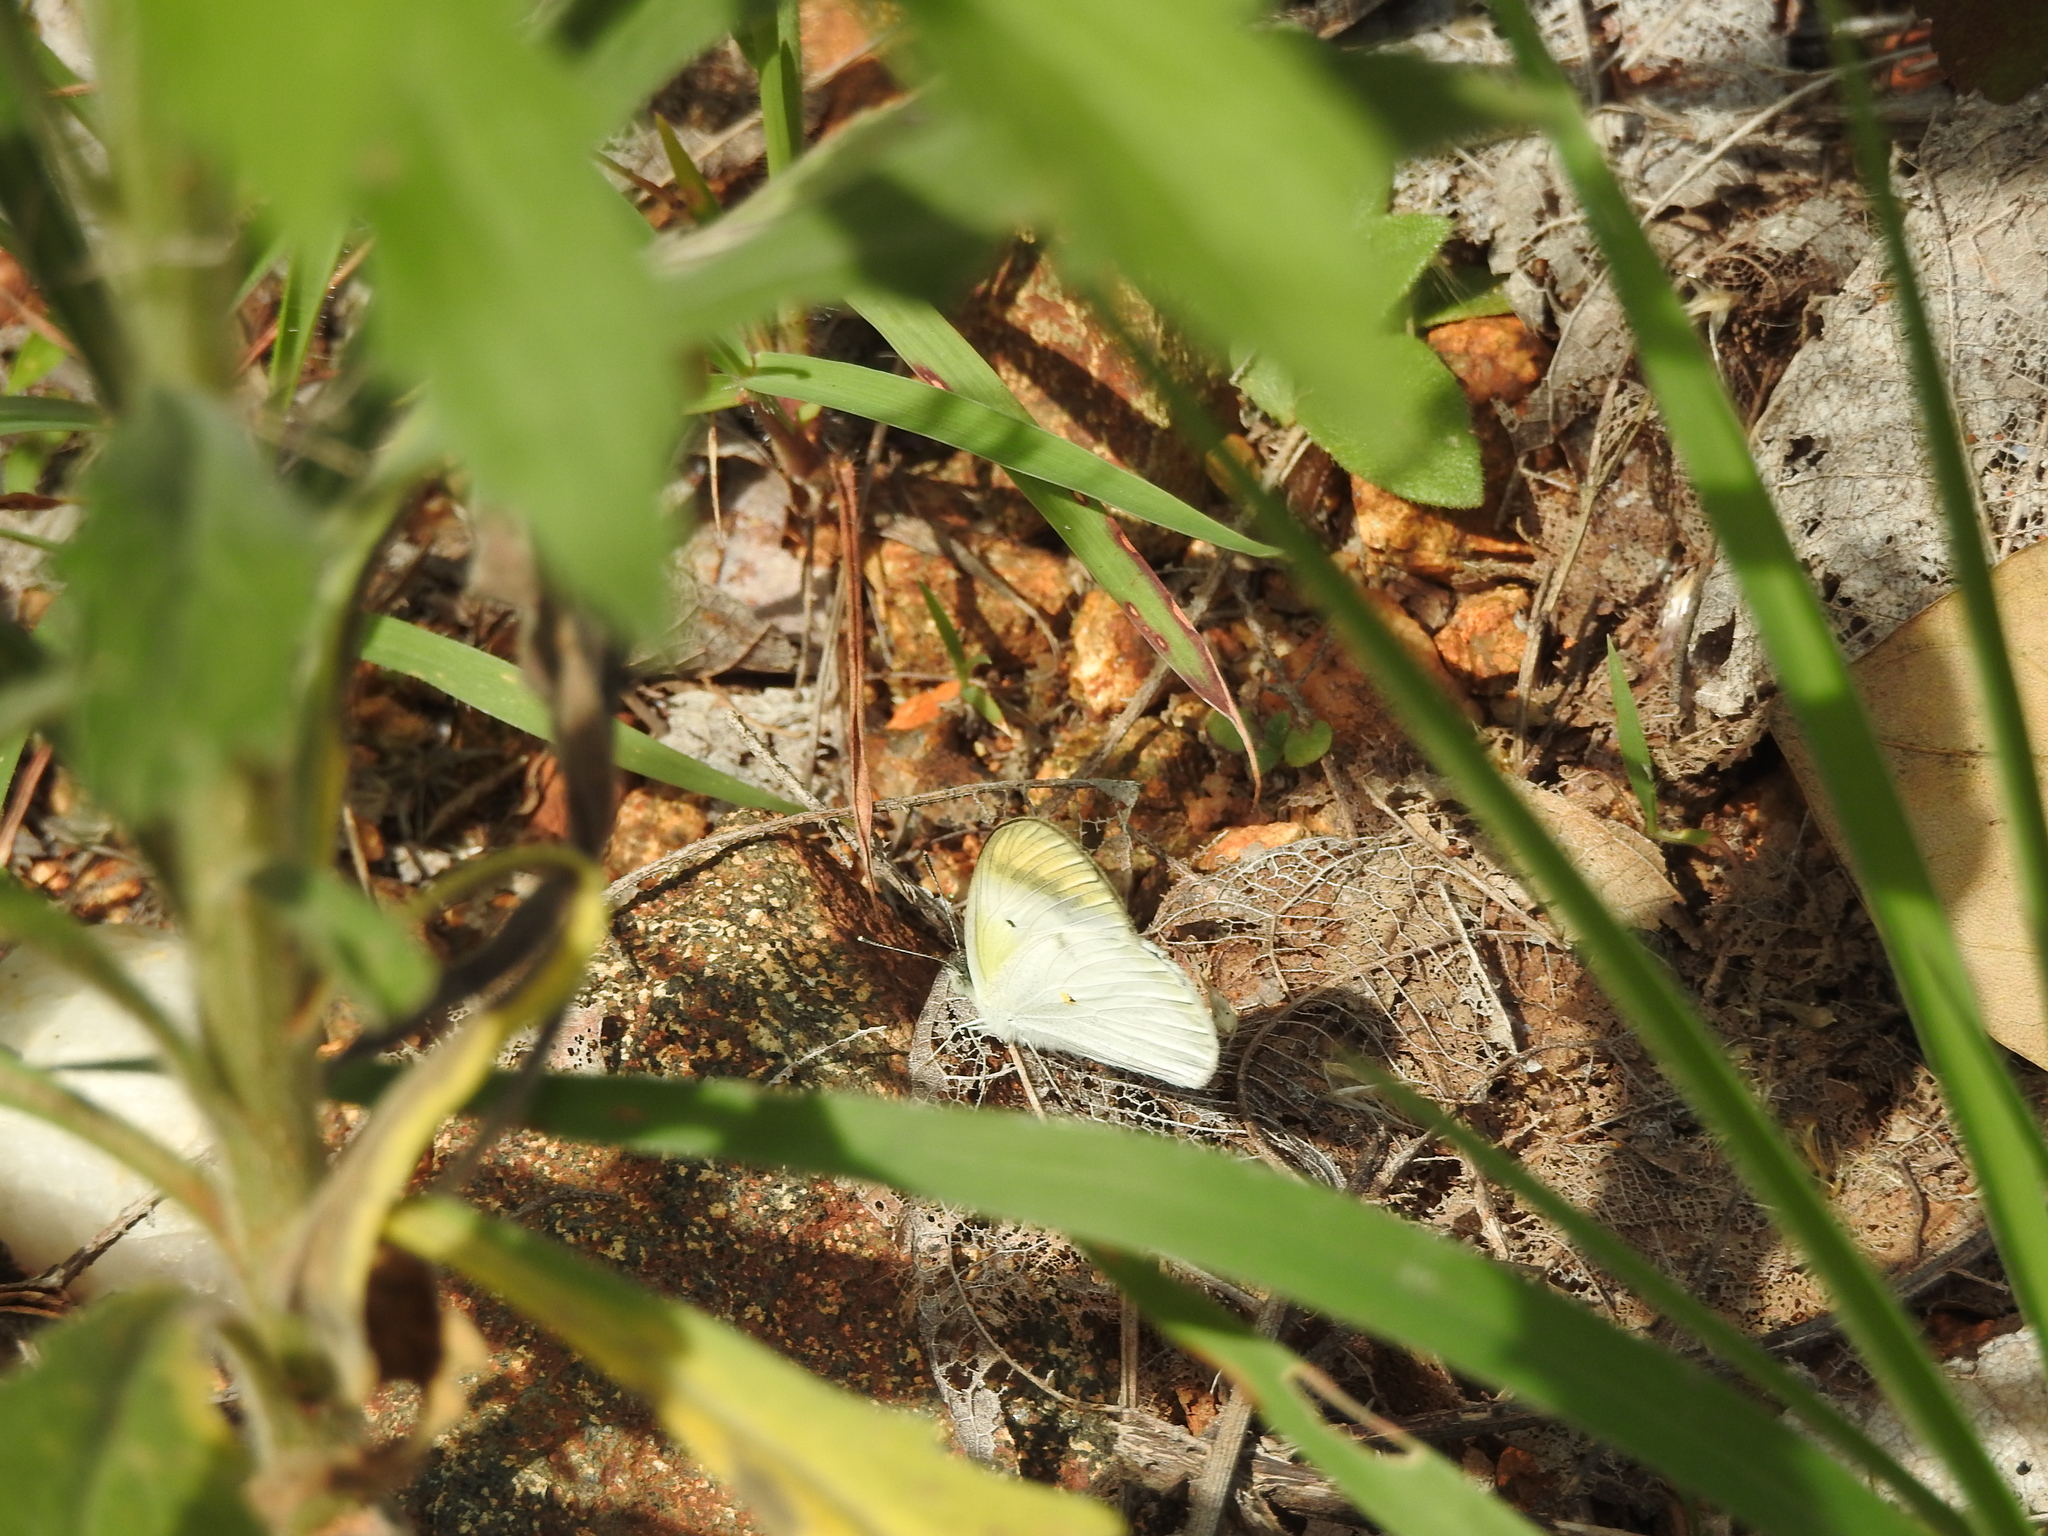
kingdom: Animalia
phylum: Arthropoda
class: Insecta
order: Lepidoptera
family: Pieridae
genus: Colotis
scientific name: Colotis etrida
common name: Little orange tip
